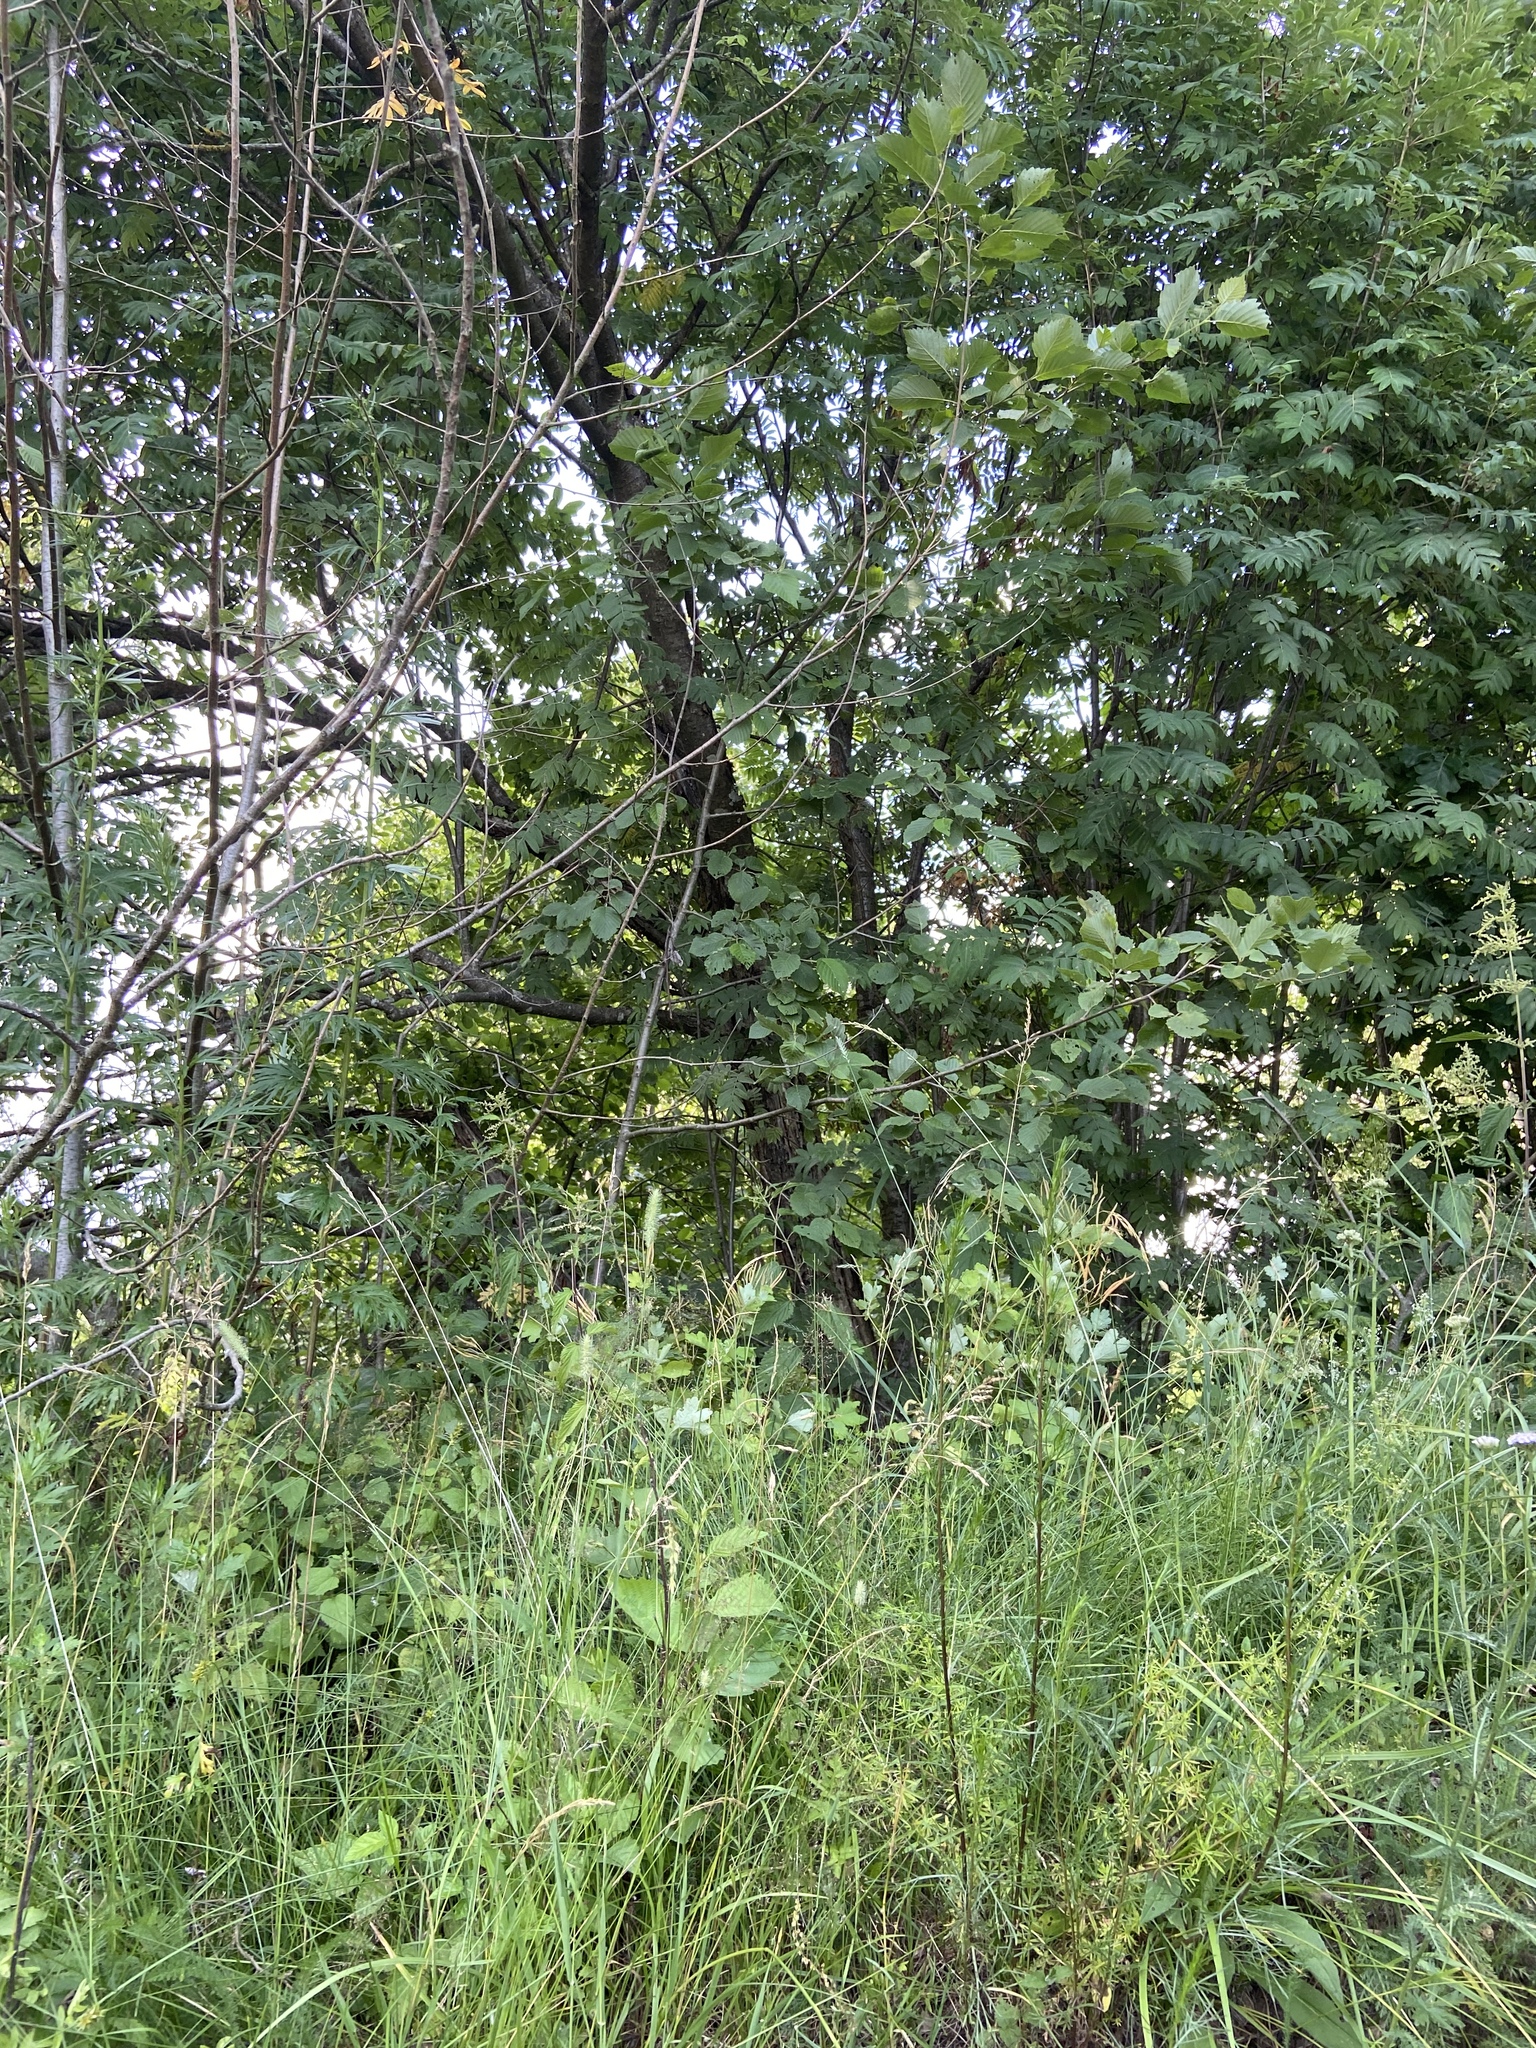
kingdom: Plantae
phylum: Tracheophyta
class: Magnoliopsida
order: Rosales
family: Rosaceae
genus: Sorbus
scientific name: Sorbus aucuparia
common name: Rowan
